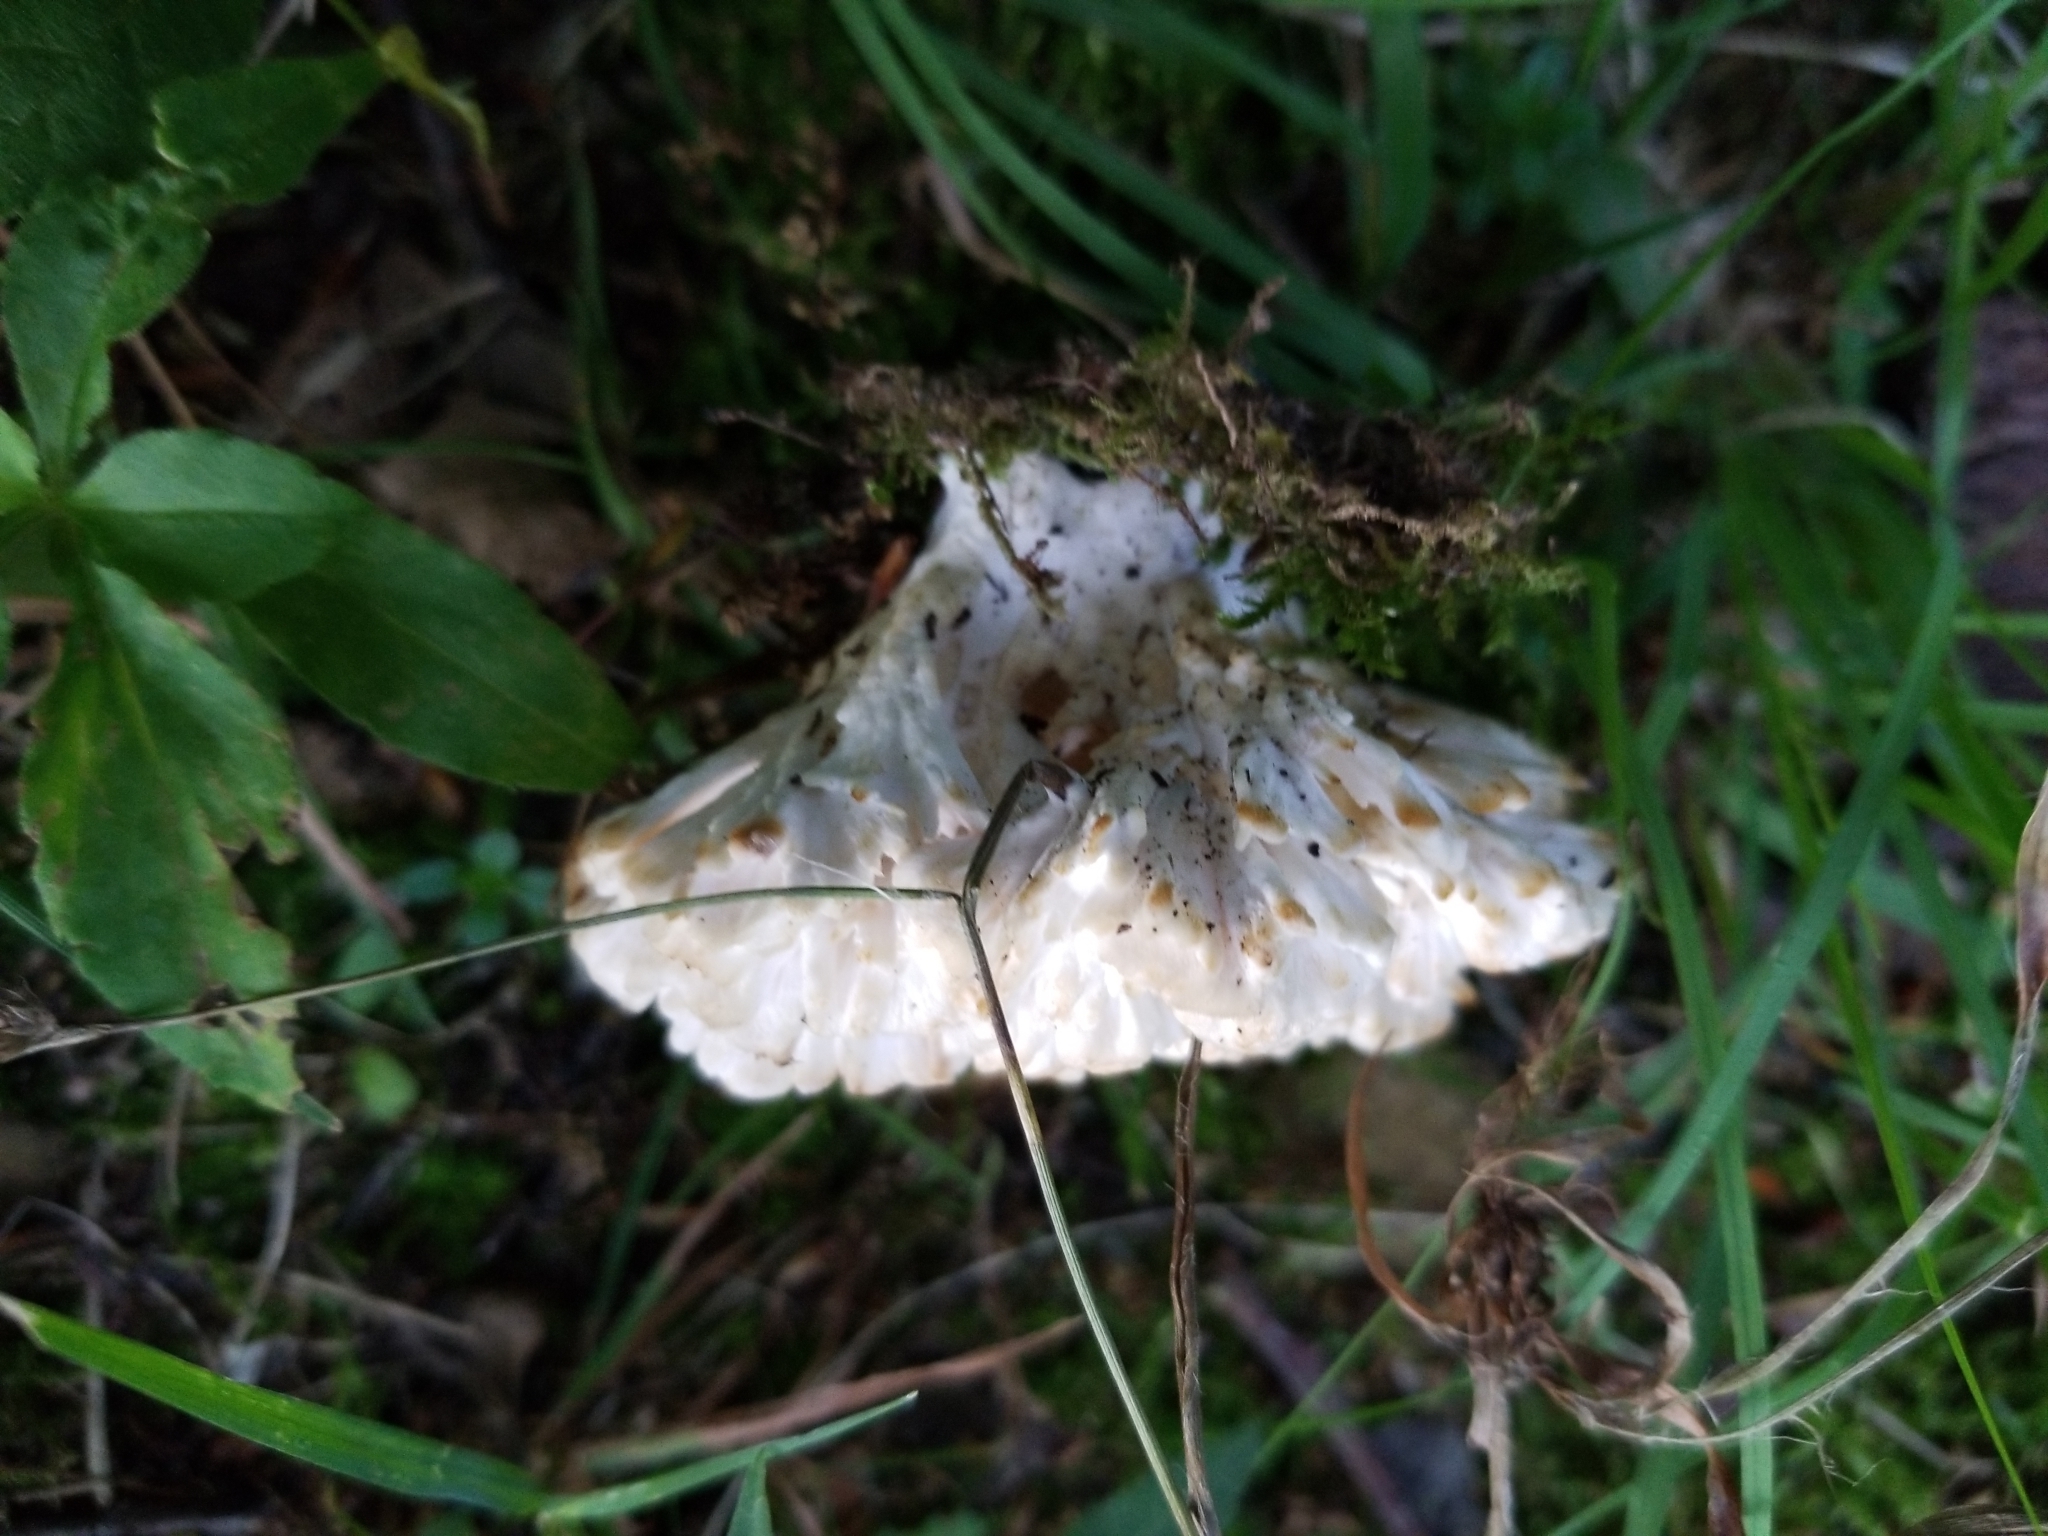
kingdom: Fungi
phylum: Basidiomycota
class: Agaricomycetes
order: Sebacinales
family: Sebacinaceae
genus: Sebacina
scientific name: Sebacina schweinitzii
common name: Jellied false coral fungus
